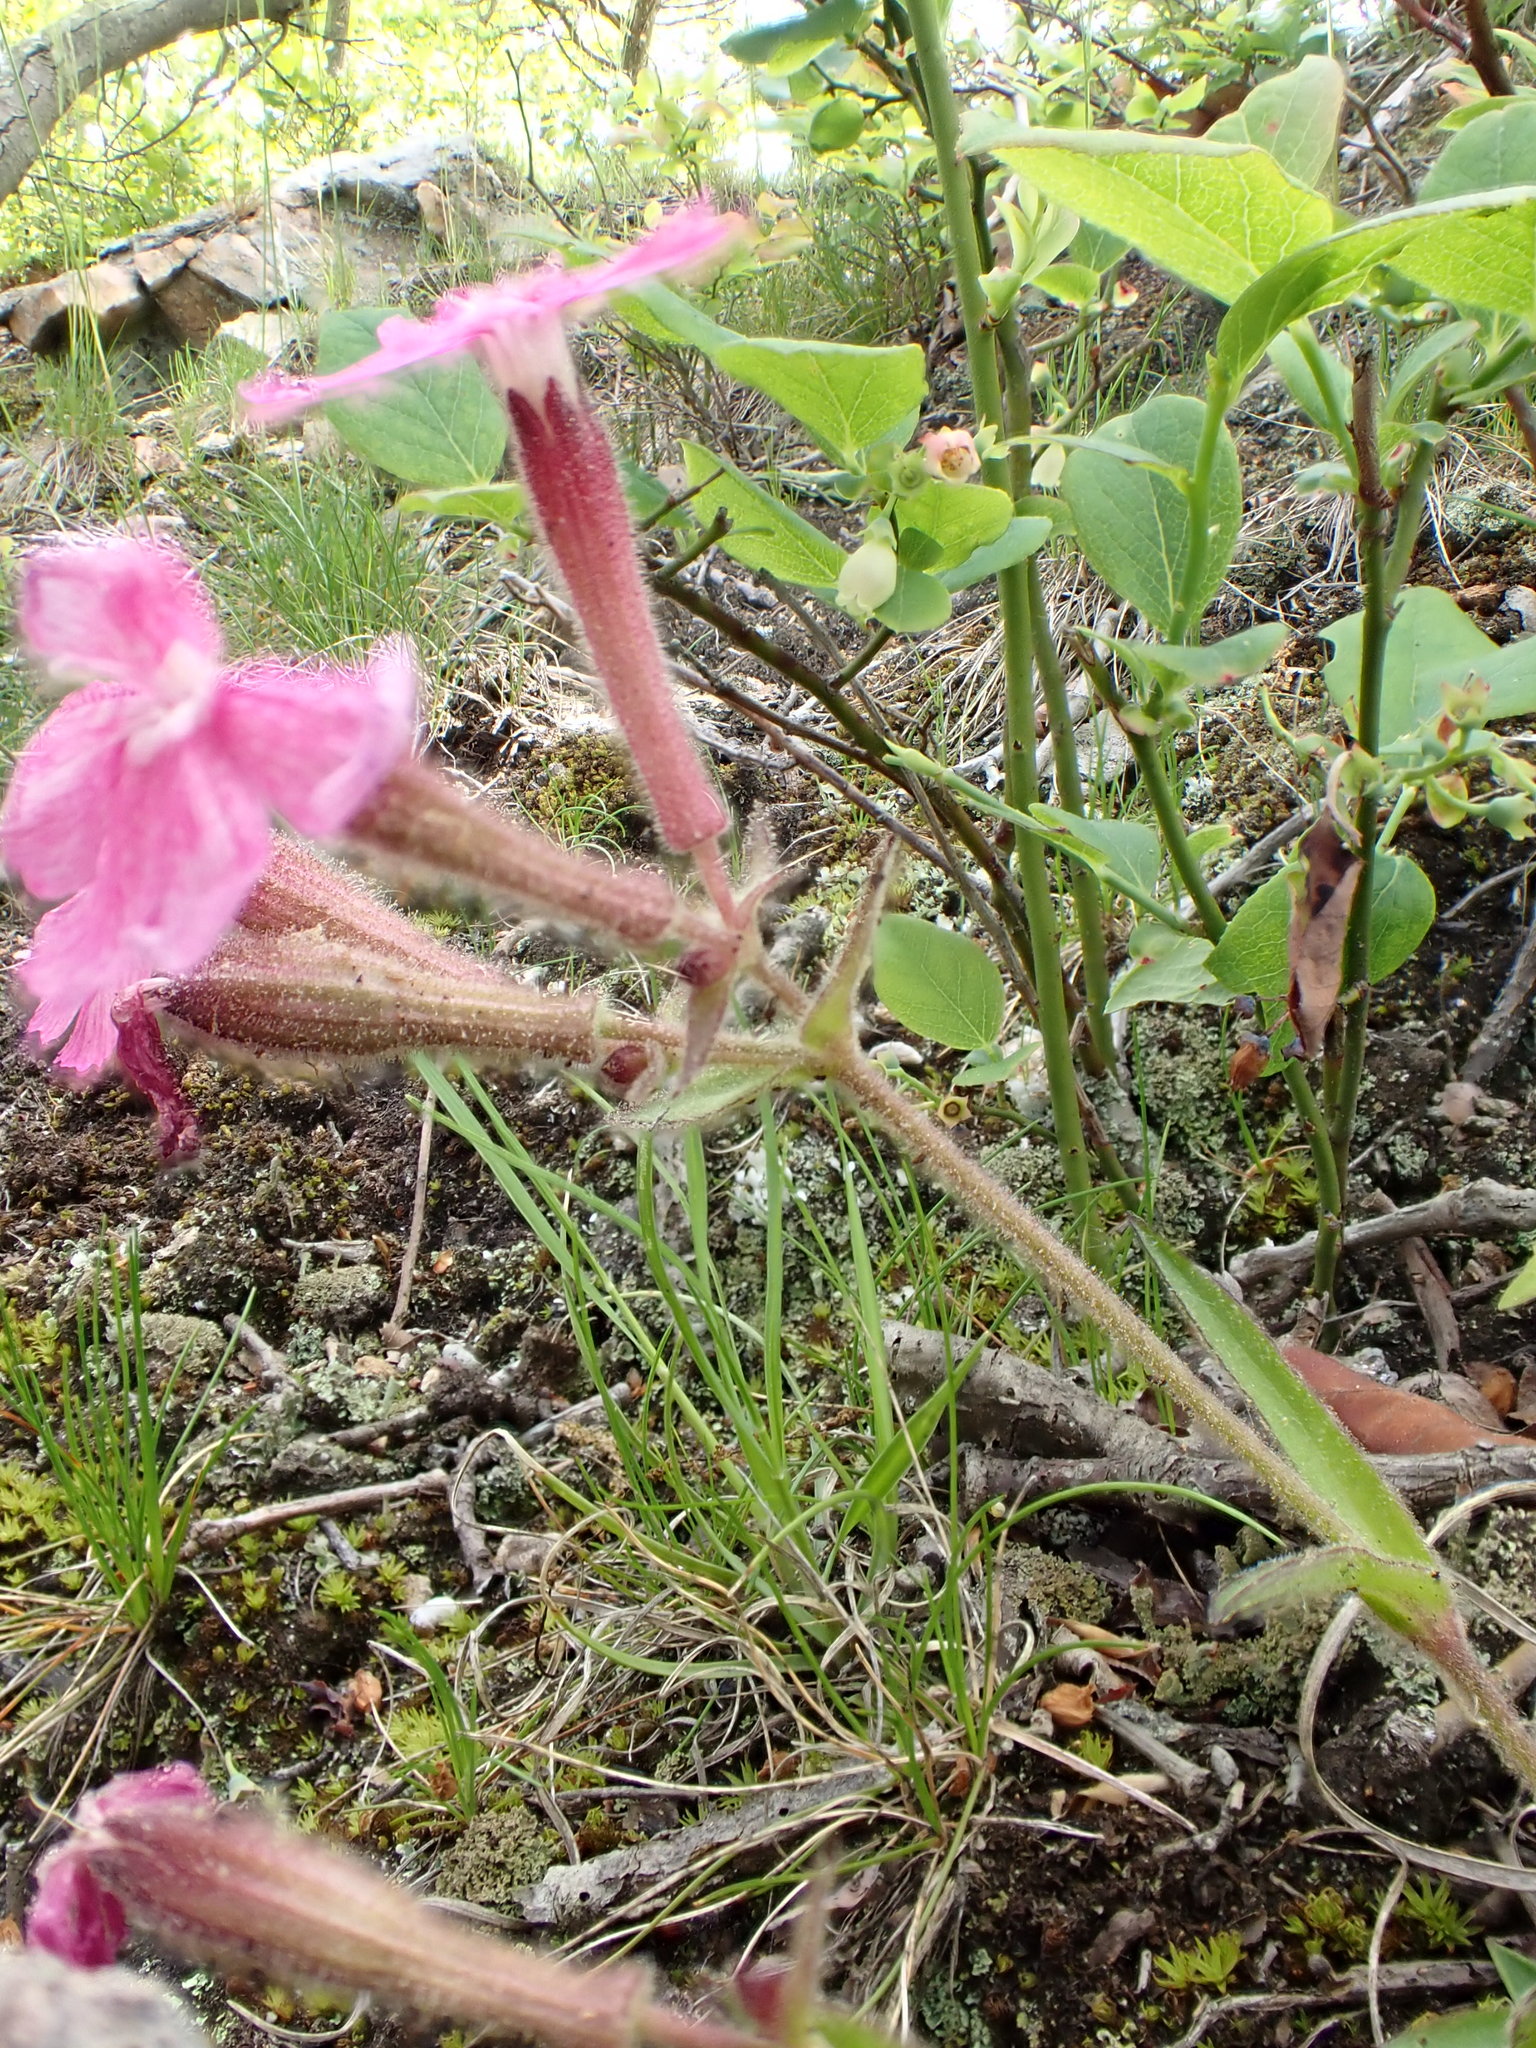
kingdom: Plantae
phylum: Tracheophyta
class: Magnoliopsida
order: Caryophyllales
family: Caryophyllaceae
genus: Silene
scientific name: Silene caroliniana
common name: Sticky catchfly
